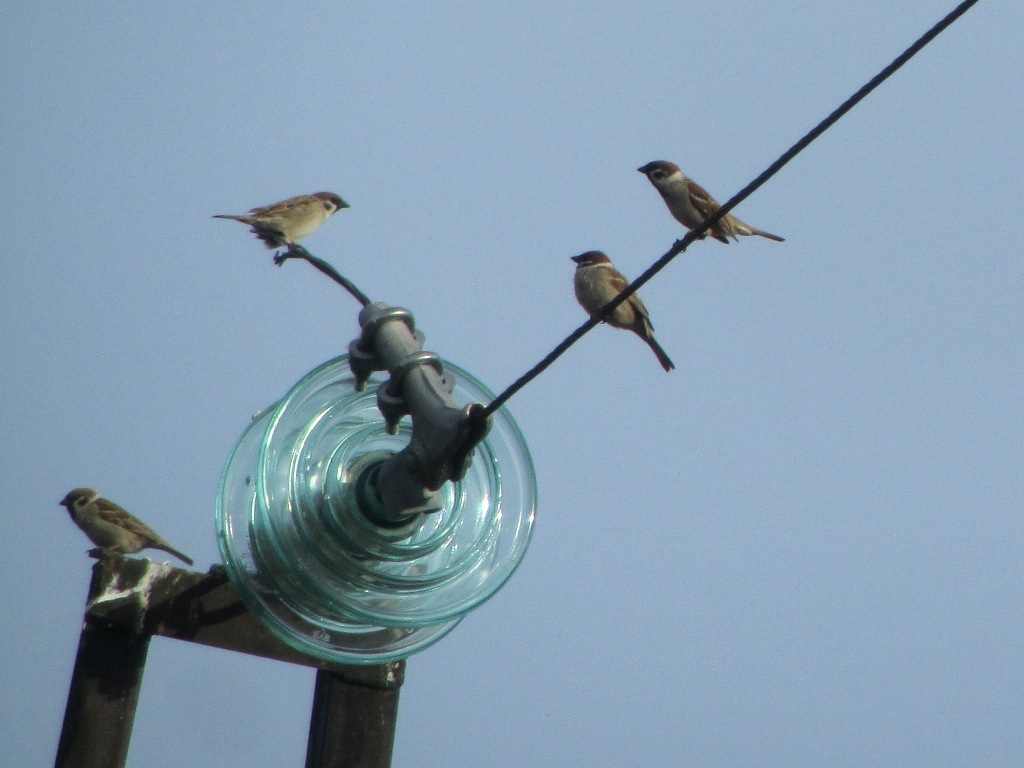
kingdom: Animalia
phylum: Chordata
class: Aves
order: Passeriformes
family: Passeridae
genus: Passer
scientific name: Passer montanus
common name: Eurasian tree sparrow
